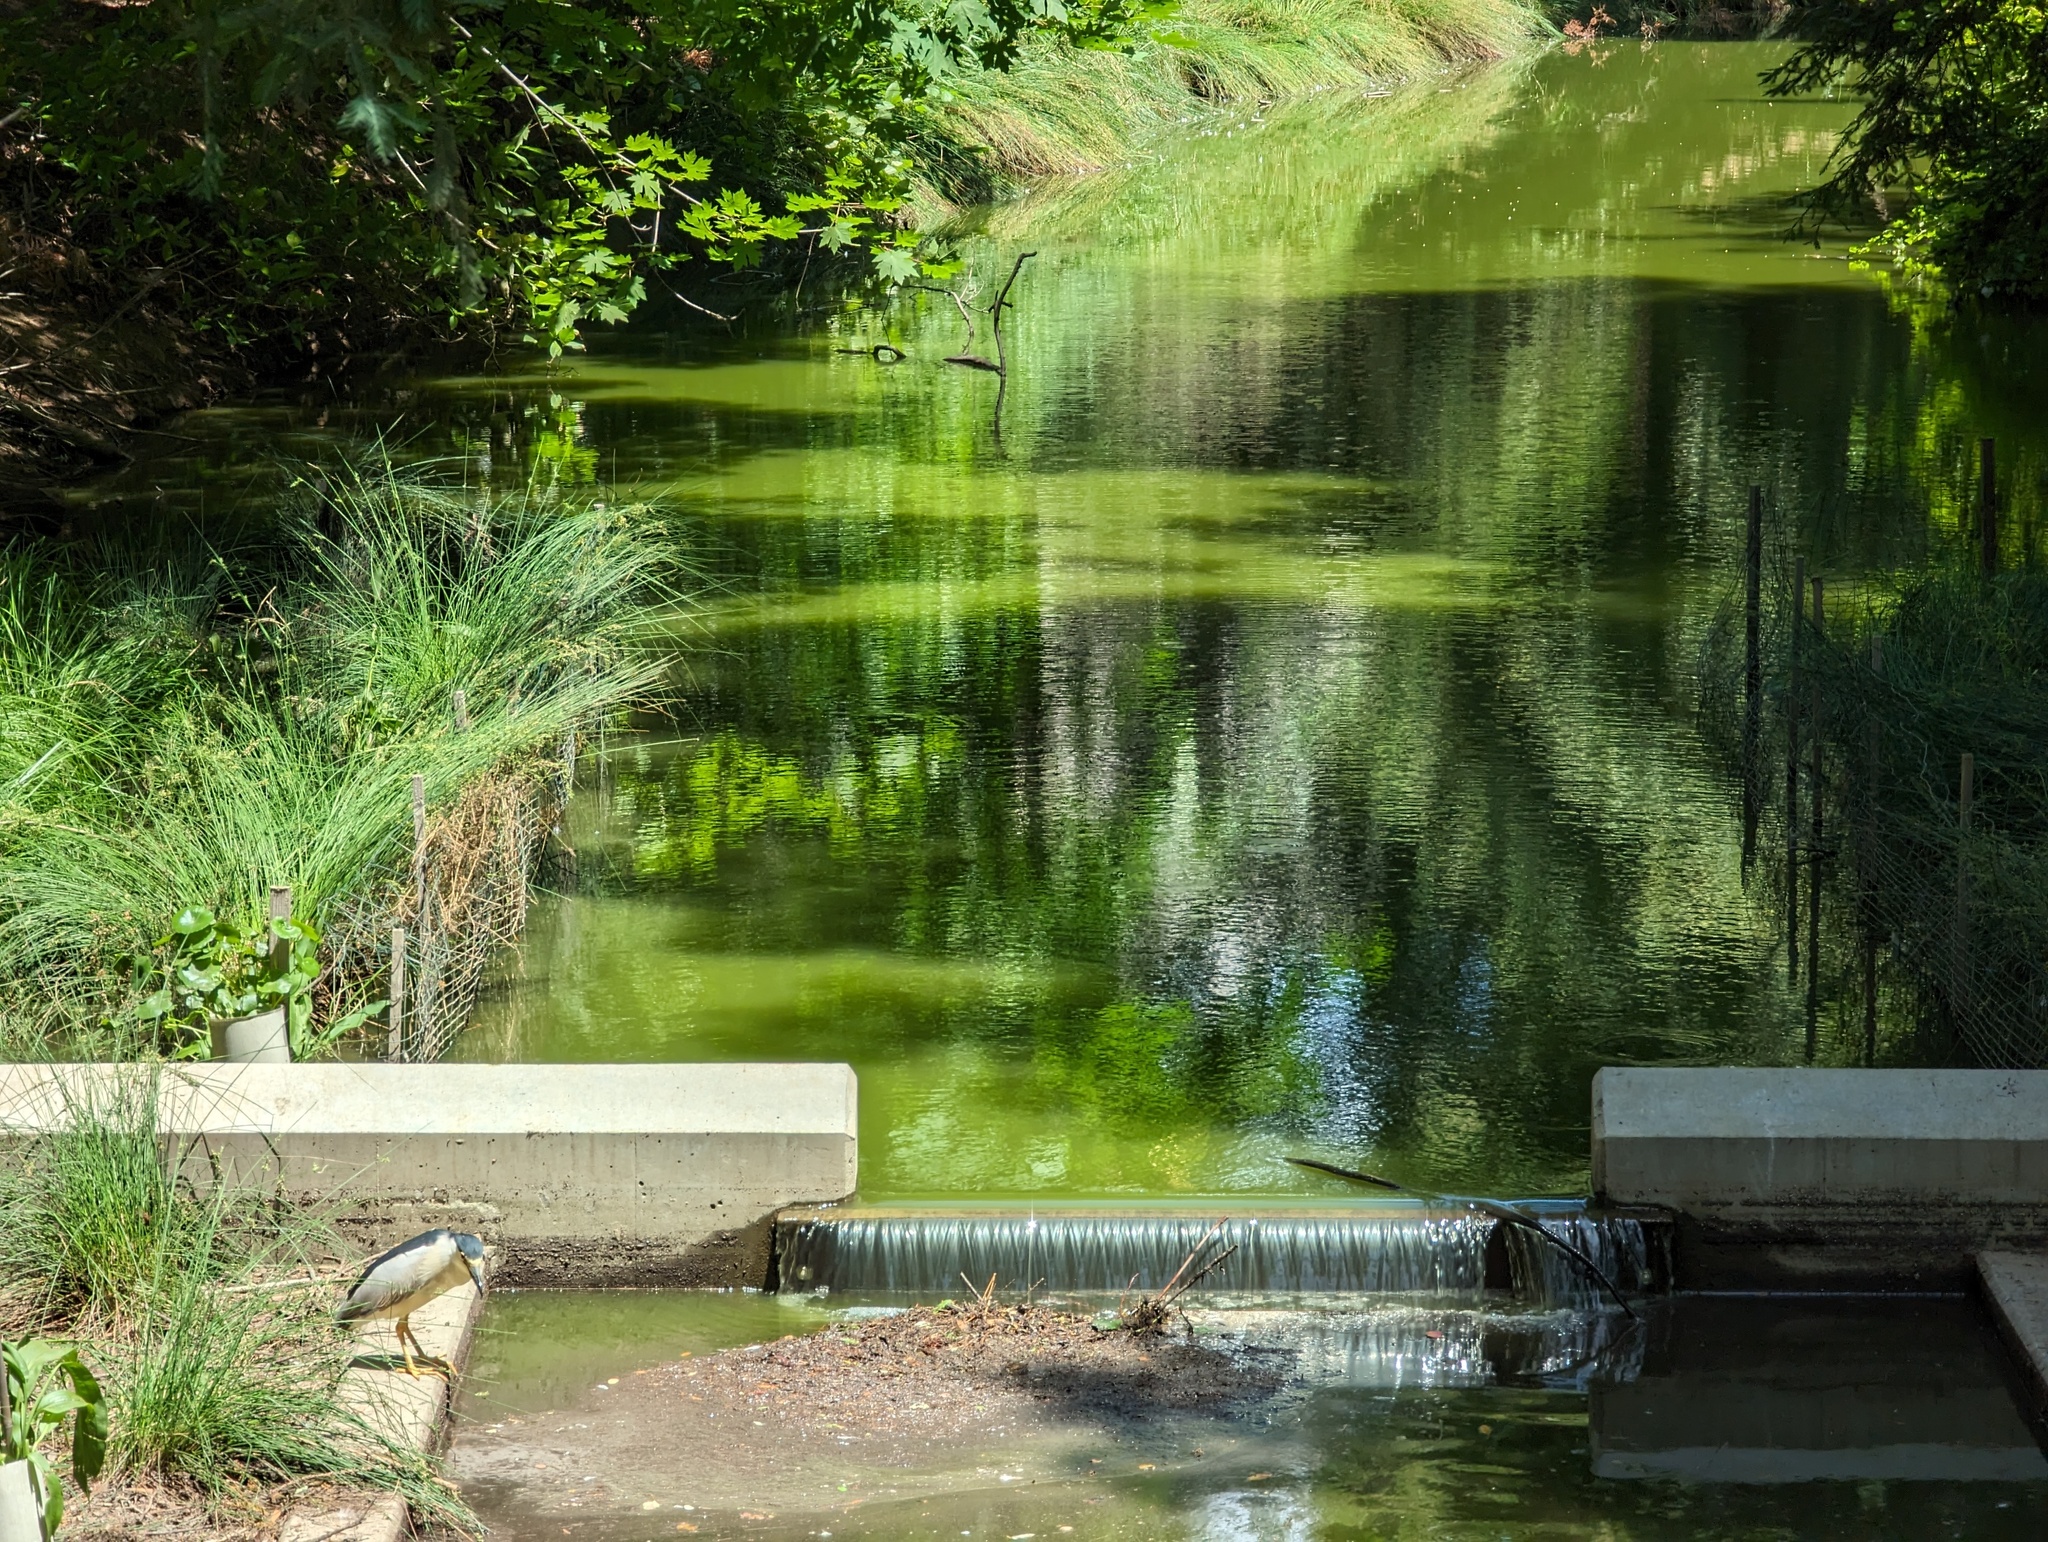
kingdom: Animalia
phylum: Chordata
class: Aves
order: Pelecaniformes
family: Ardeidae
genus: Nycticorax
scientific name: Nycticorax nycticorax
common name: Black-crowned night heron
